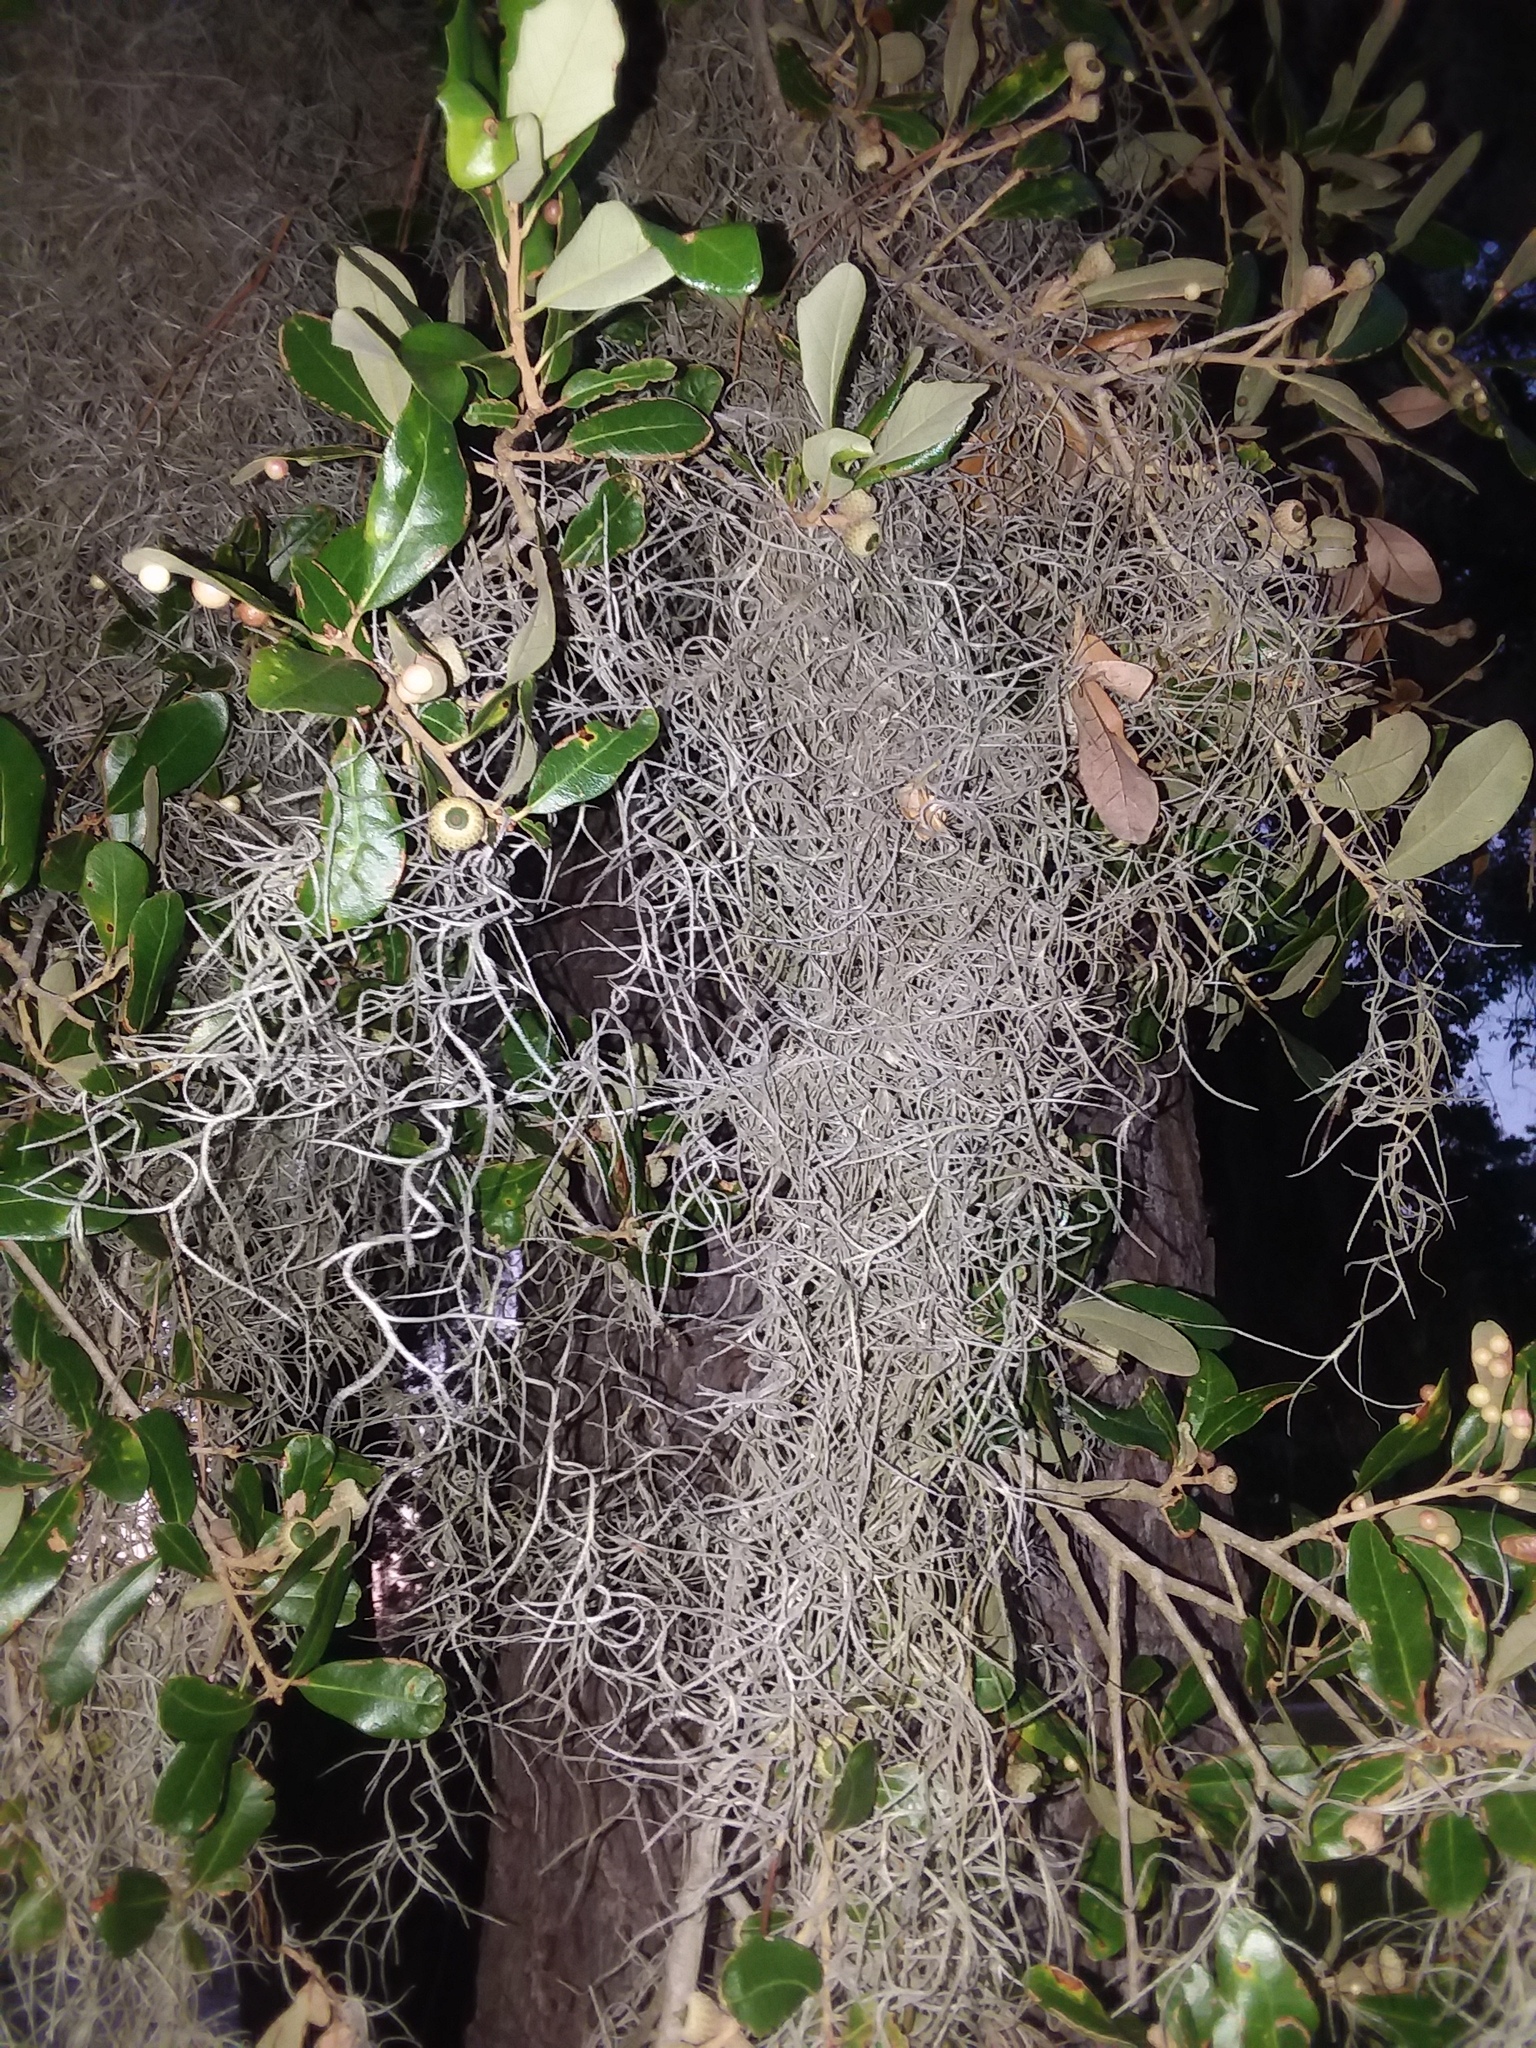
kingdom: Plantae
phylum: Tracheophyta
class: Liliopsida
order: Poales
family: Bromeliaceae
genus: Tillandsia
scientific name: Tillandsia usneoides
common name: Spanish moss
